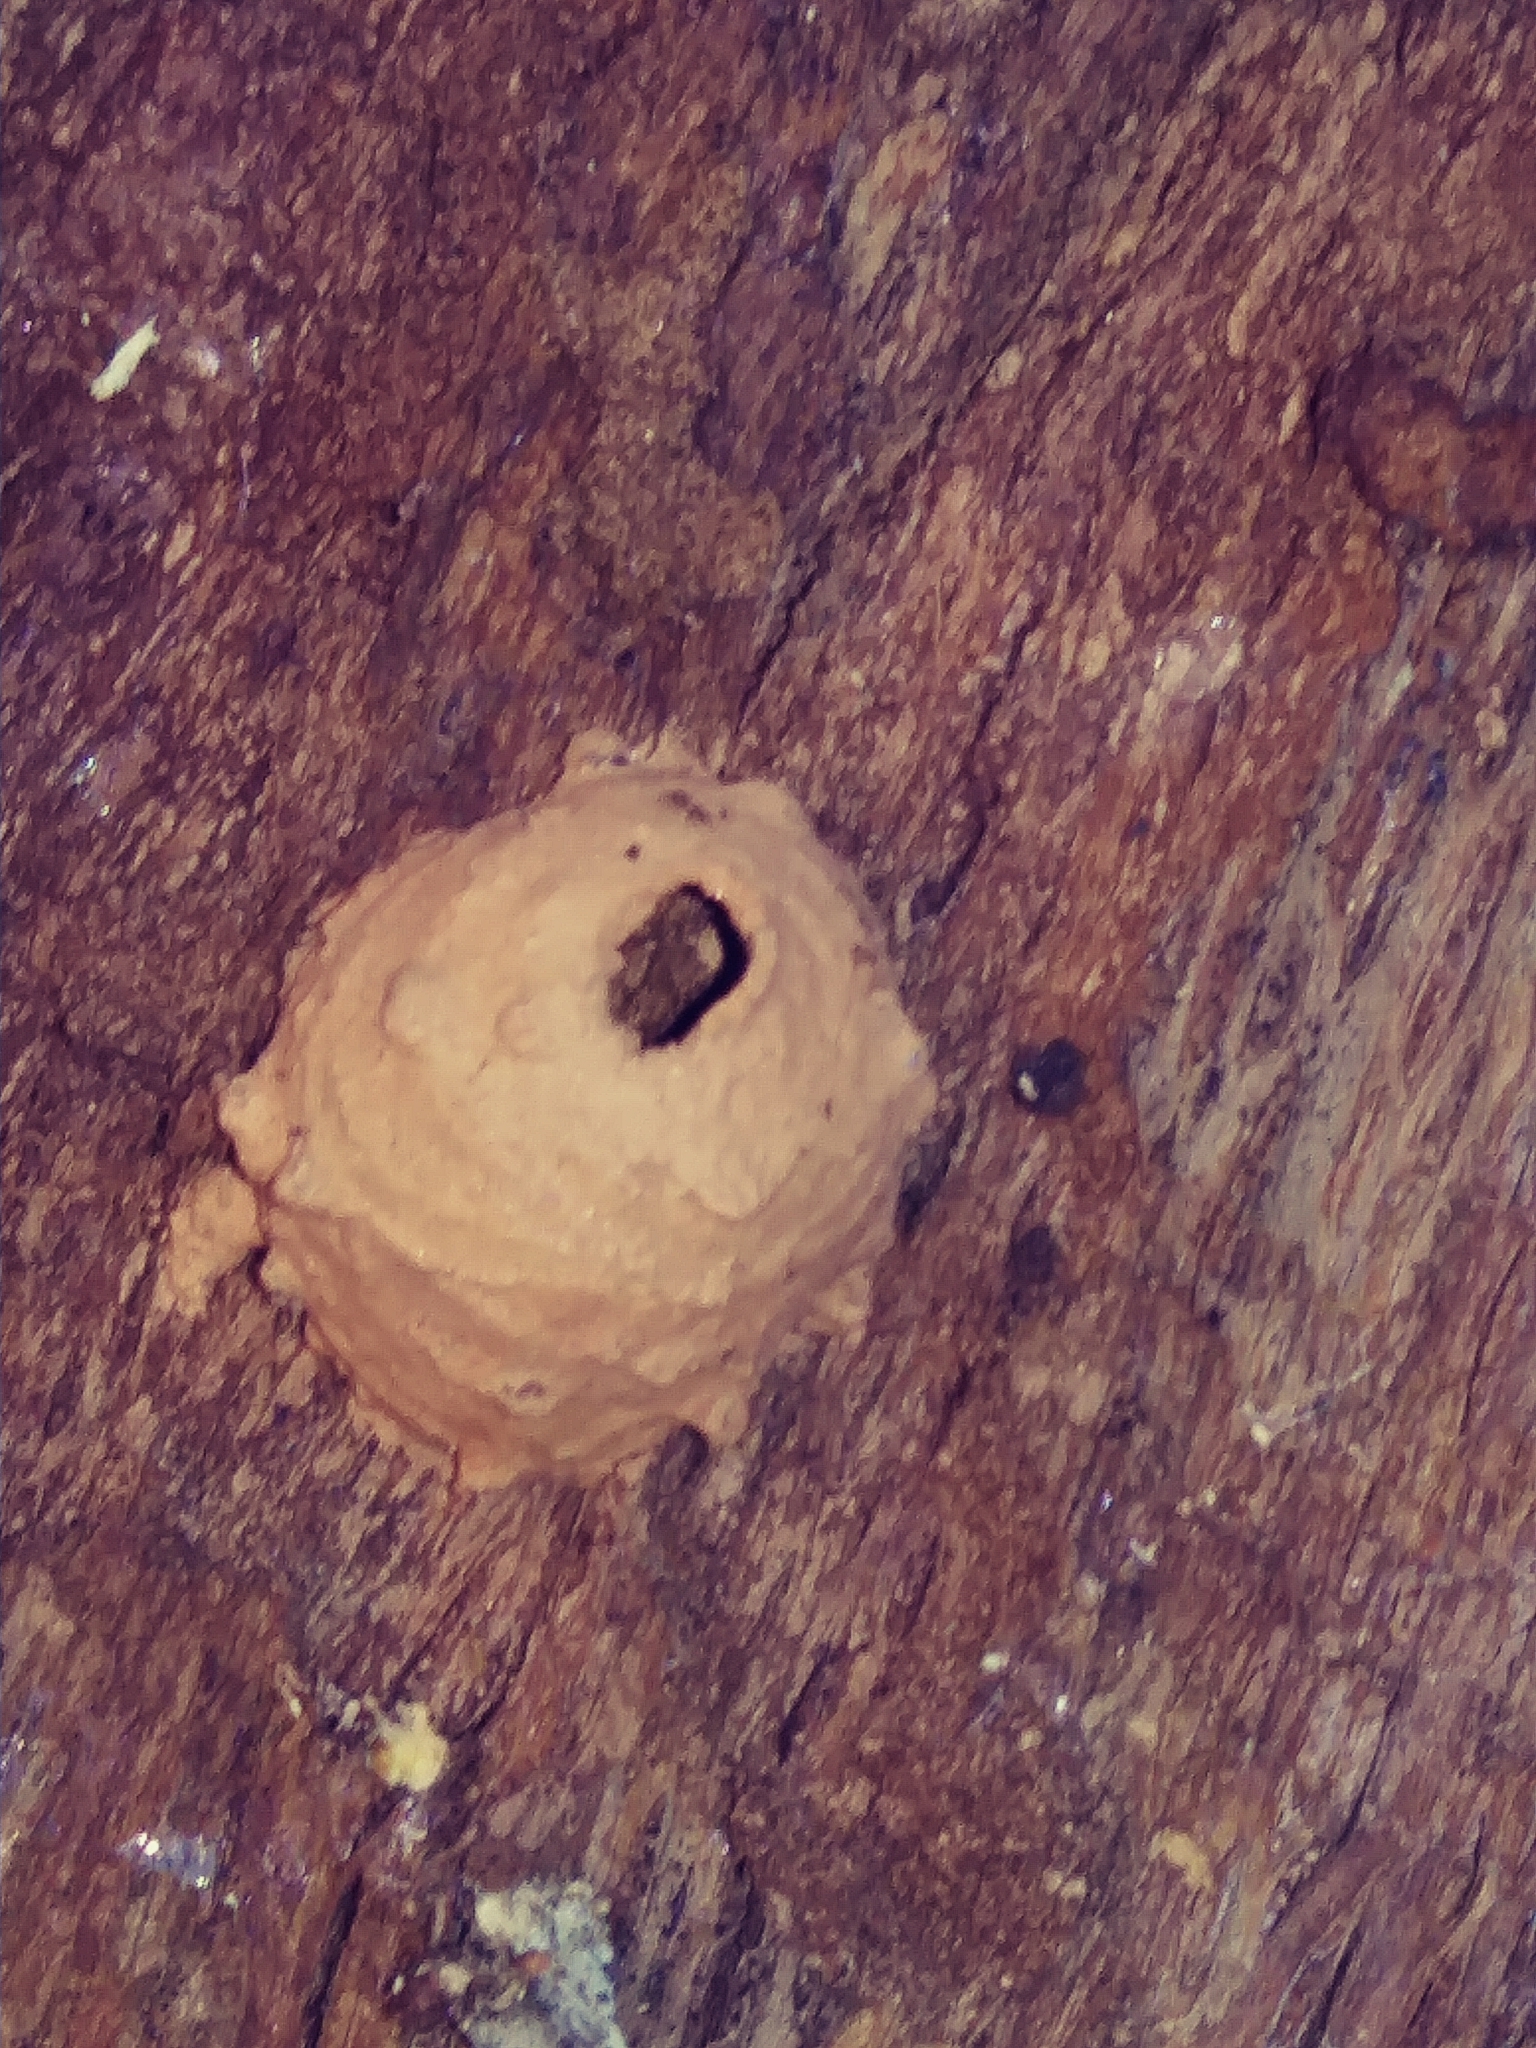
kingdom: Animalia
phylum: Arthropoda
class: Insecta
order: Hymenoptera
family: Vespidae
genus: Eumenes
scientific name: Eumenes
